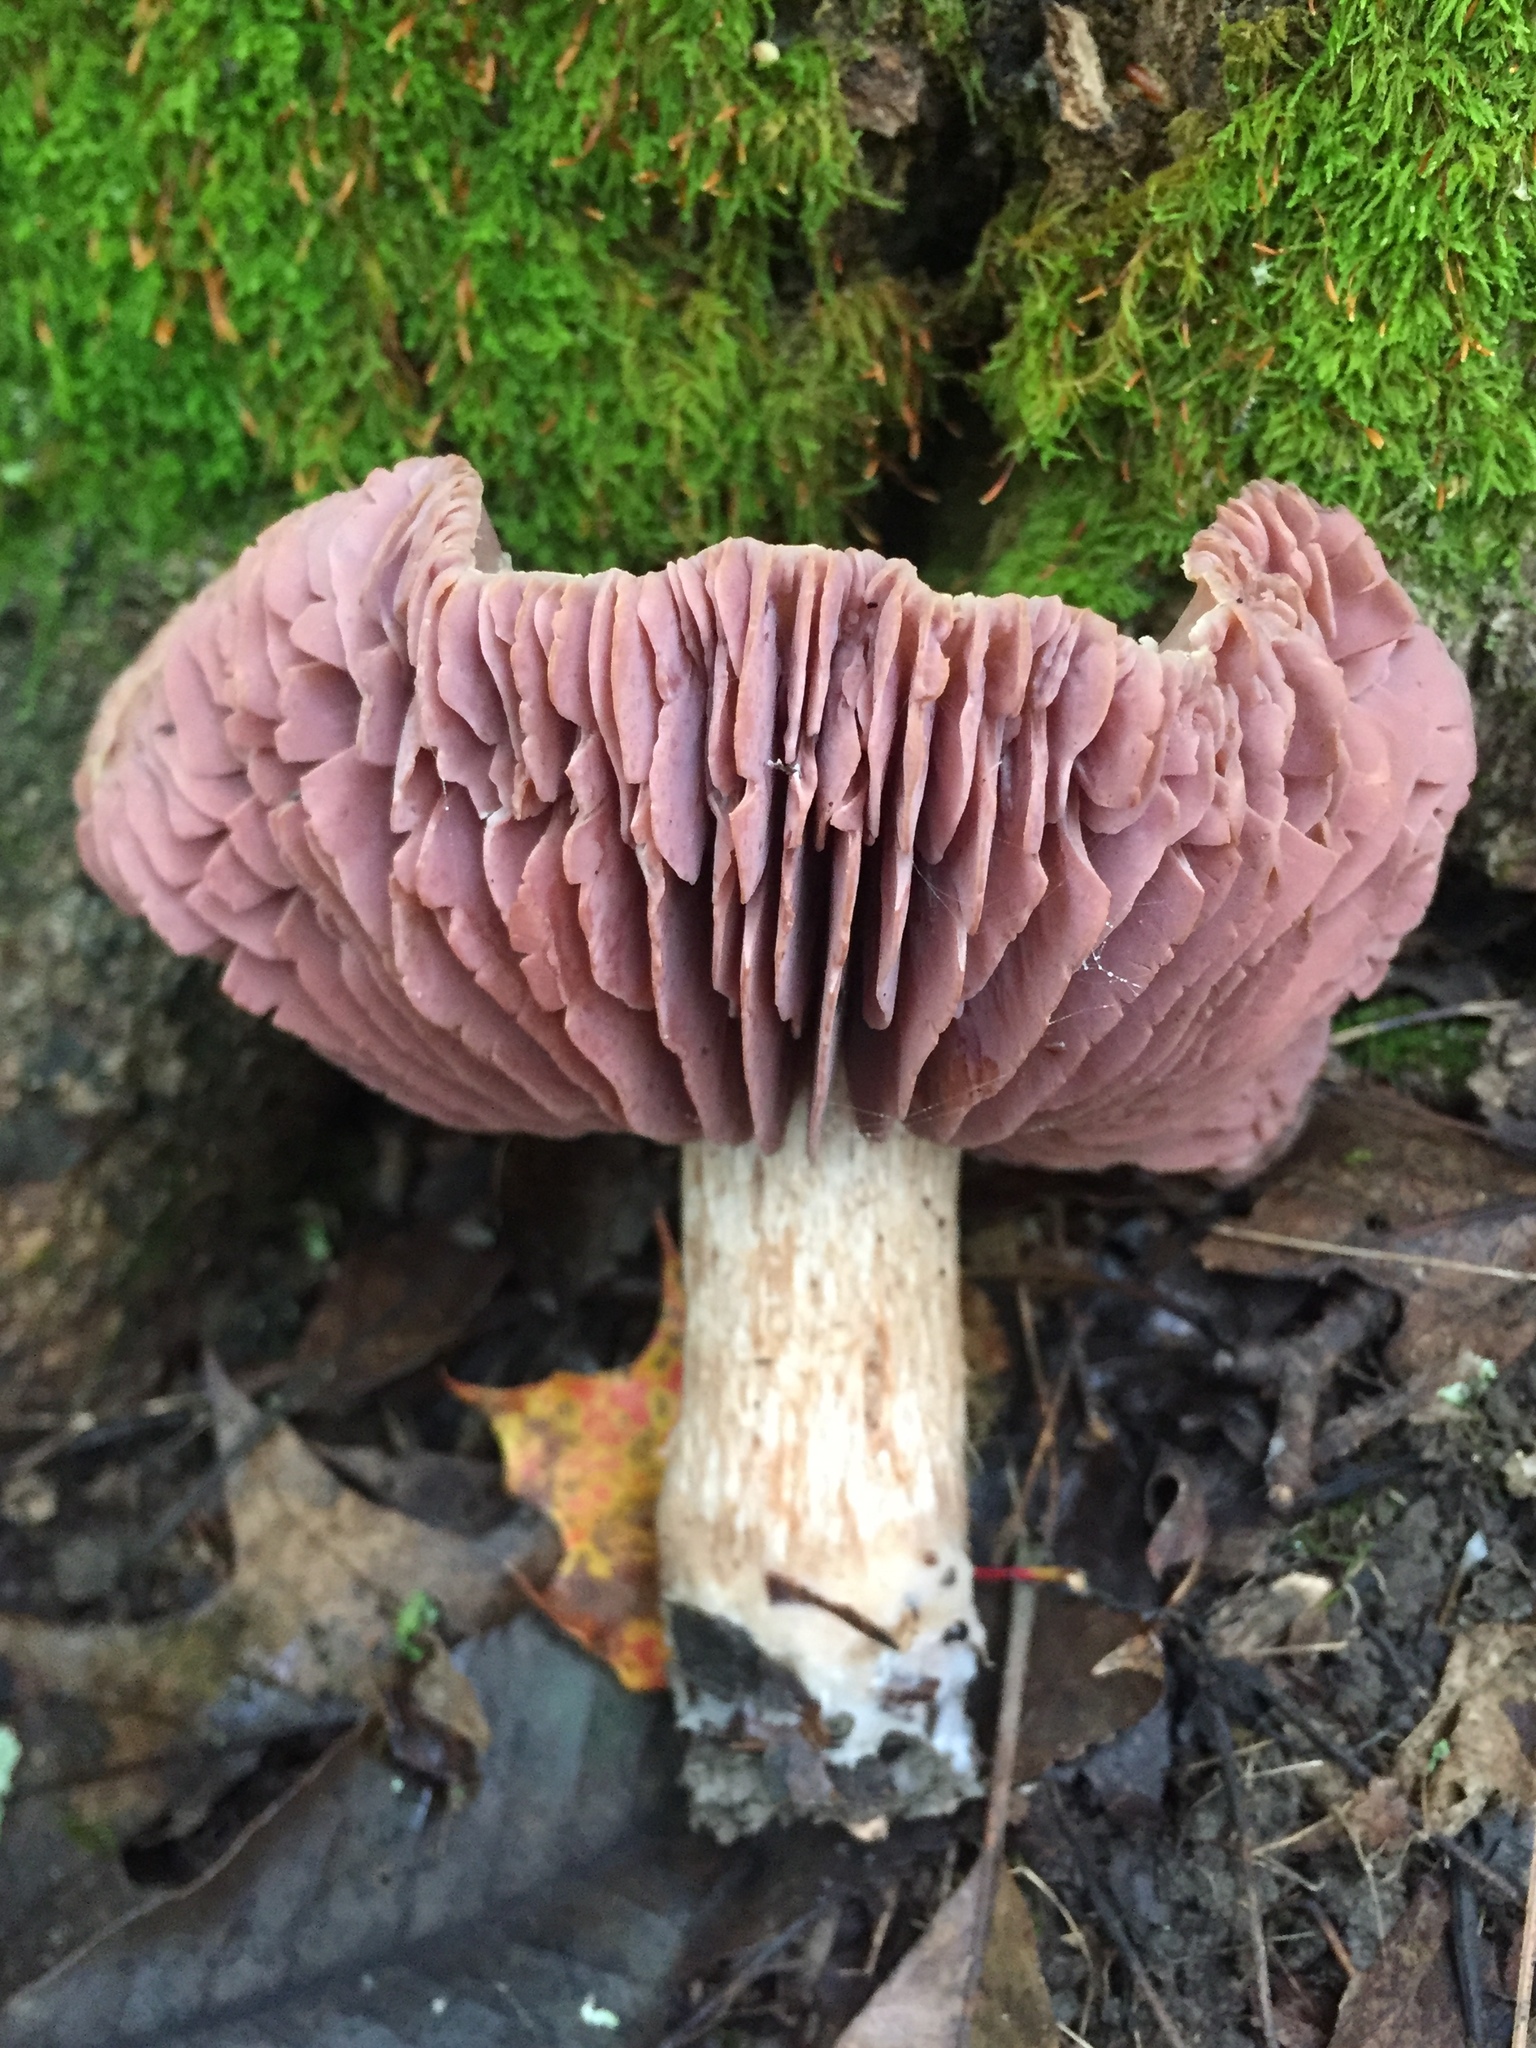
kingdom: Fungi
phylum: Basidiomycota
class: Agaricomycetes
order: Agaricales
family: Hydnangiaceae
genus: Laccaria
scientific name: Laccaria ochropurpurea
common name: Purple laccaria
